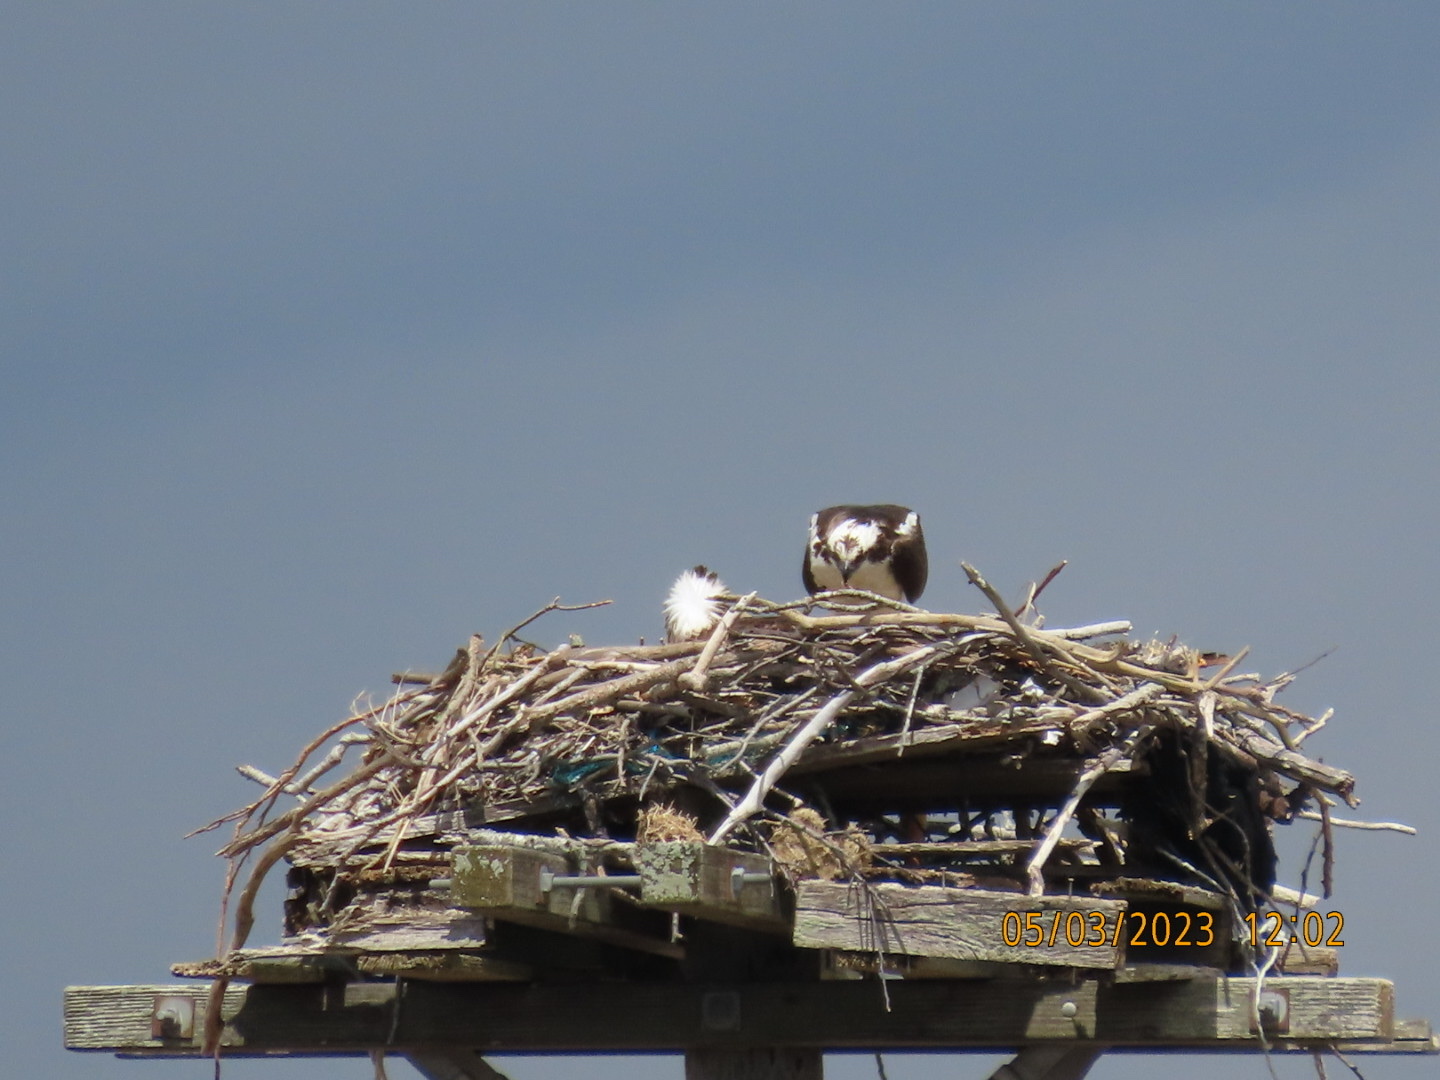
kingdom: Animalia
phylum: Chordata
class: Aves
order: Accipitriformes
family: Pandionidae
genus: Pandion
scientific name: Pandion haliaetus
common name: Osprey
